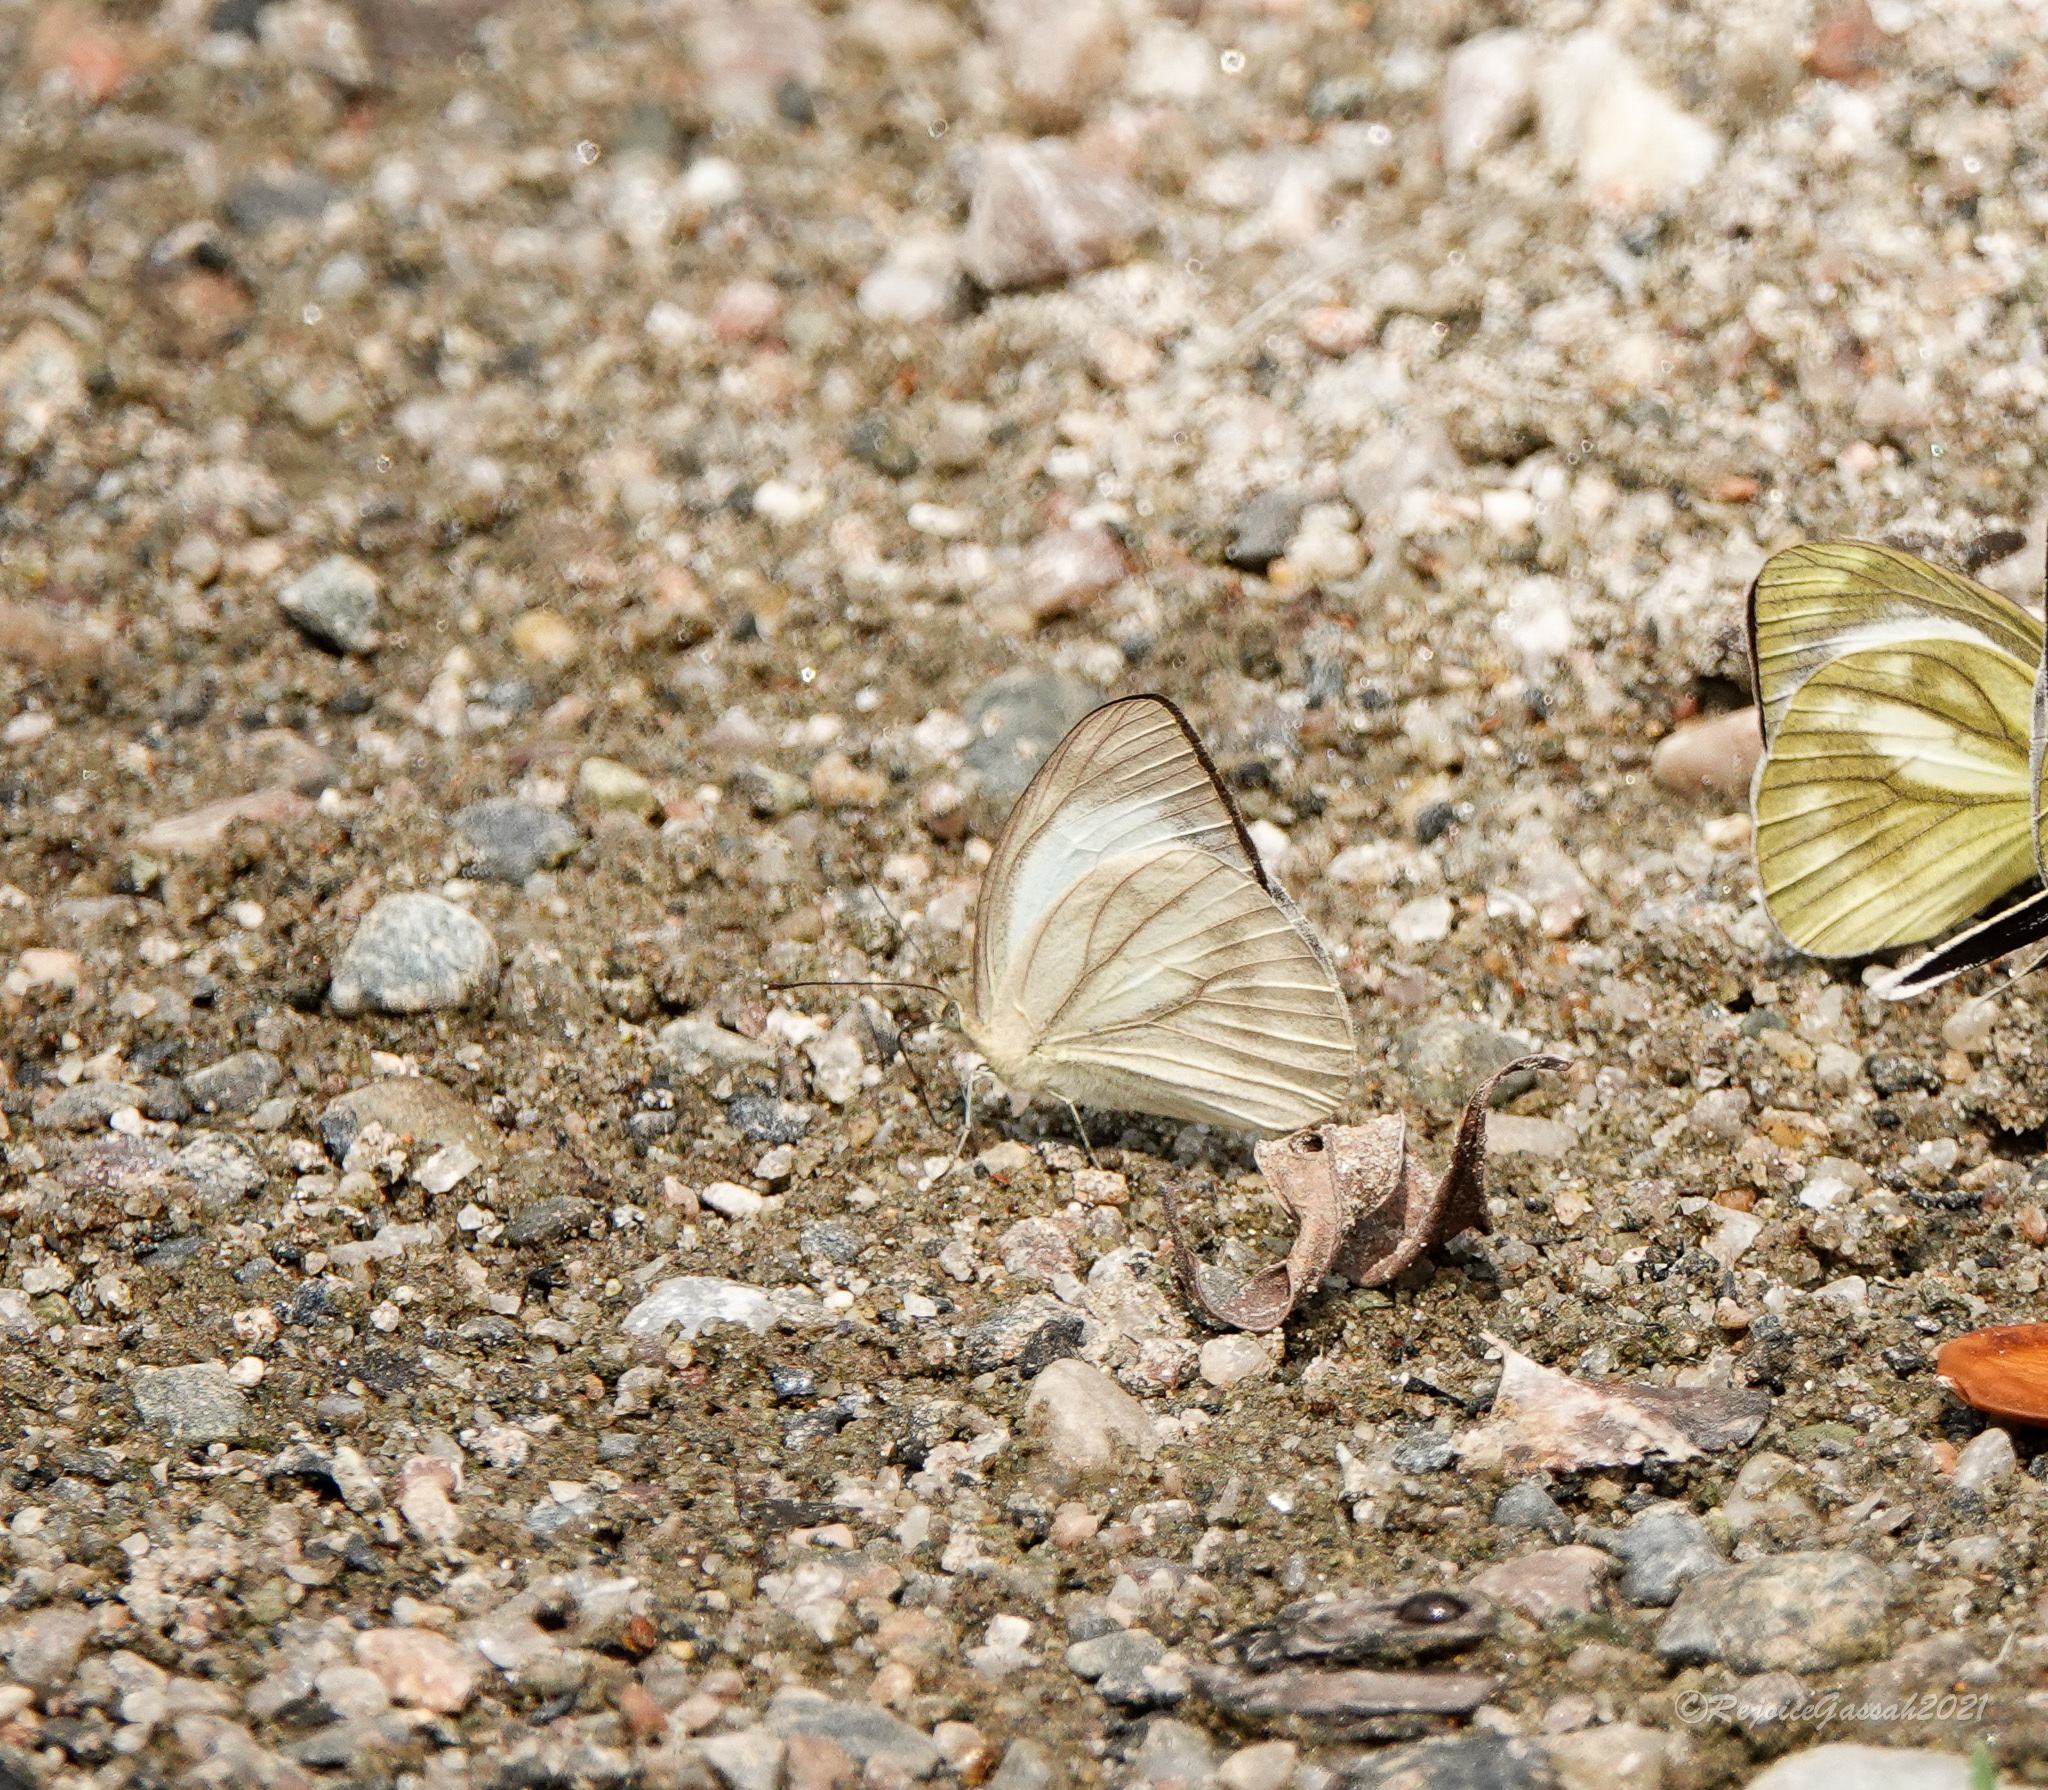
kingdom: Animalia
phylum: Arthropoda
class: Insecta
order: Lepidoptera
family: Pieridae
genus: Appias
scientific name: Appias libythea
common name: Striped albatross
